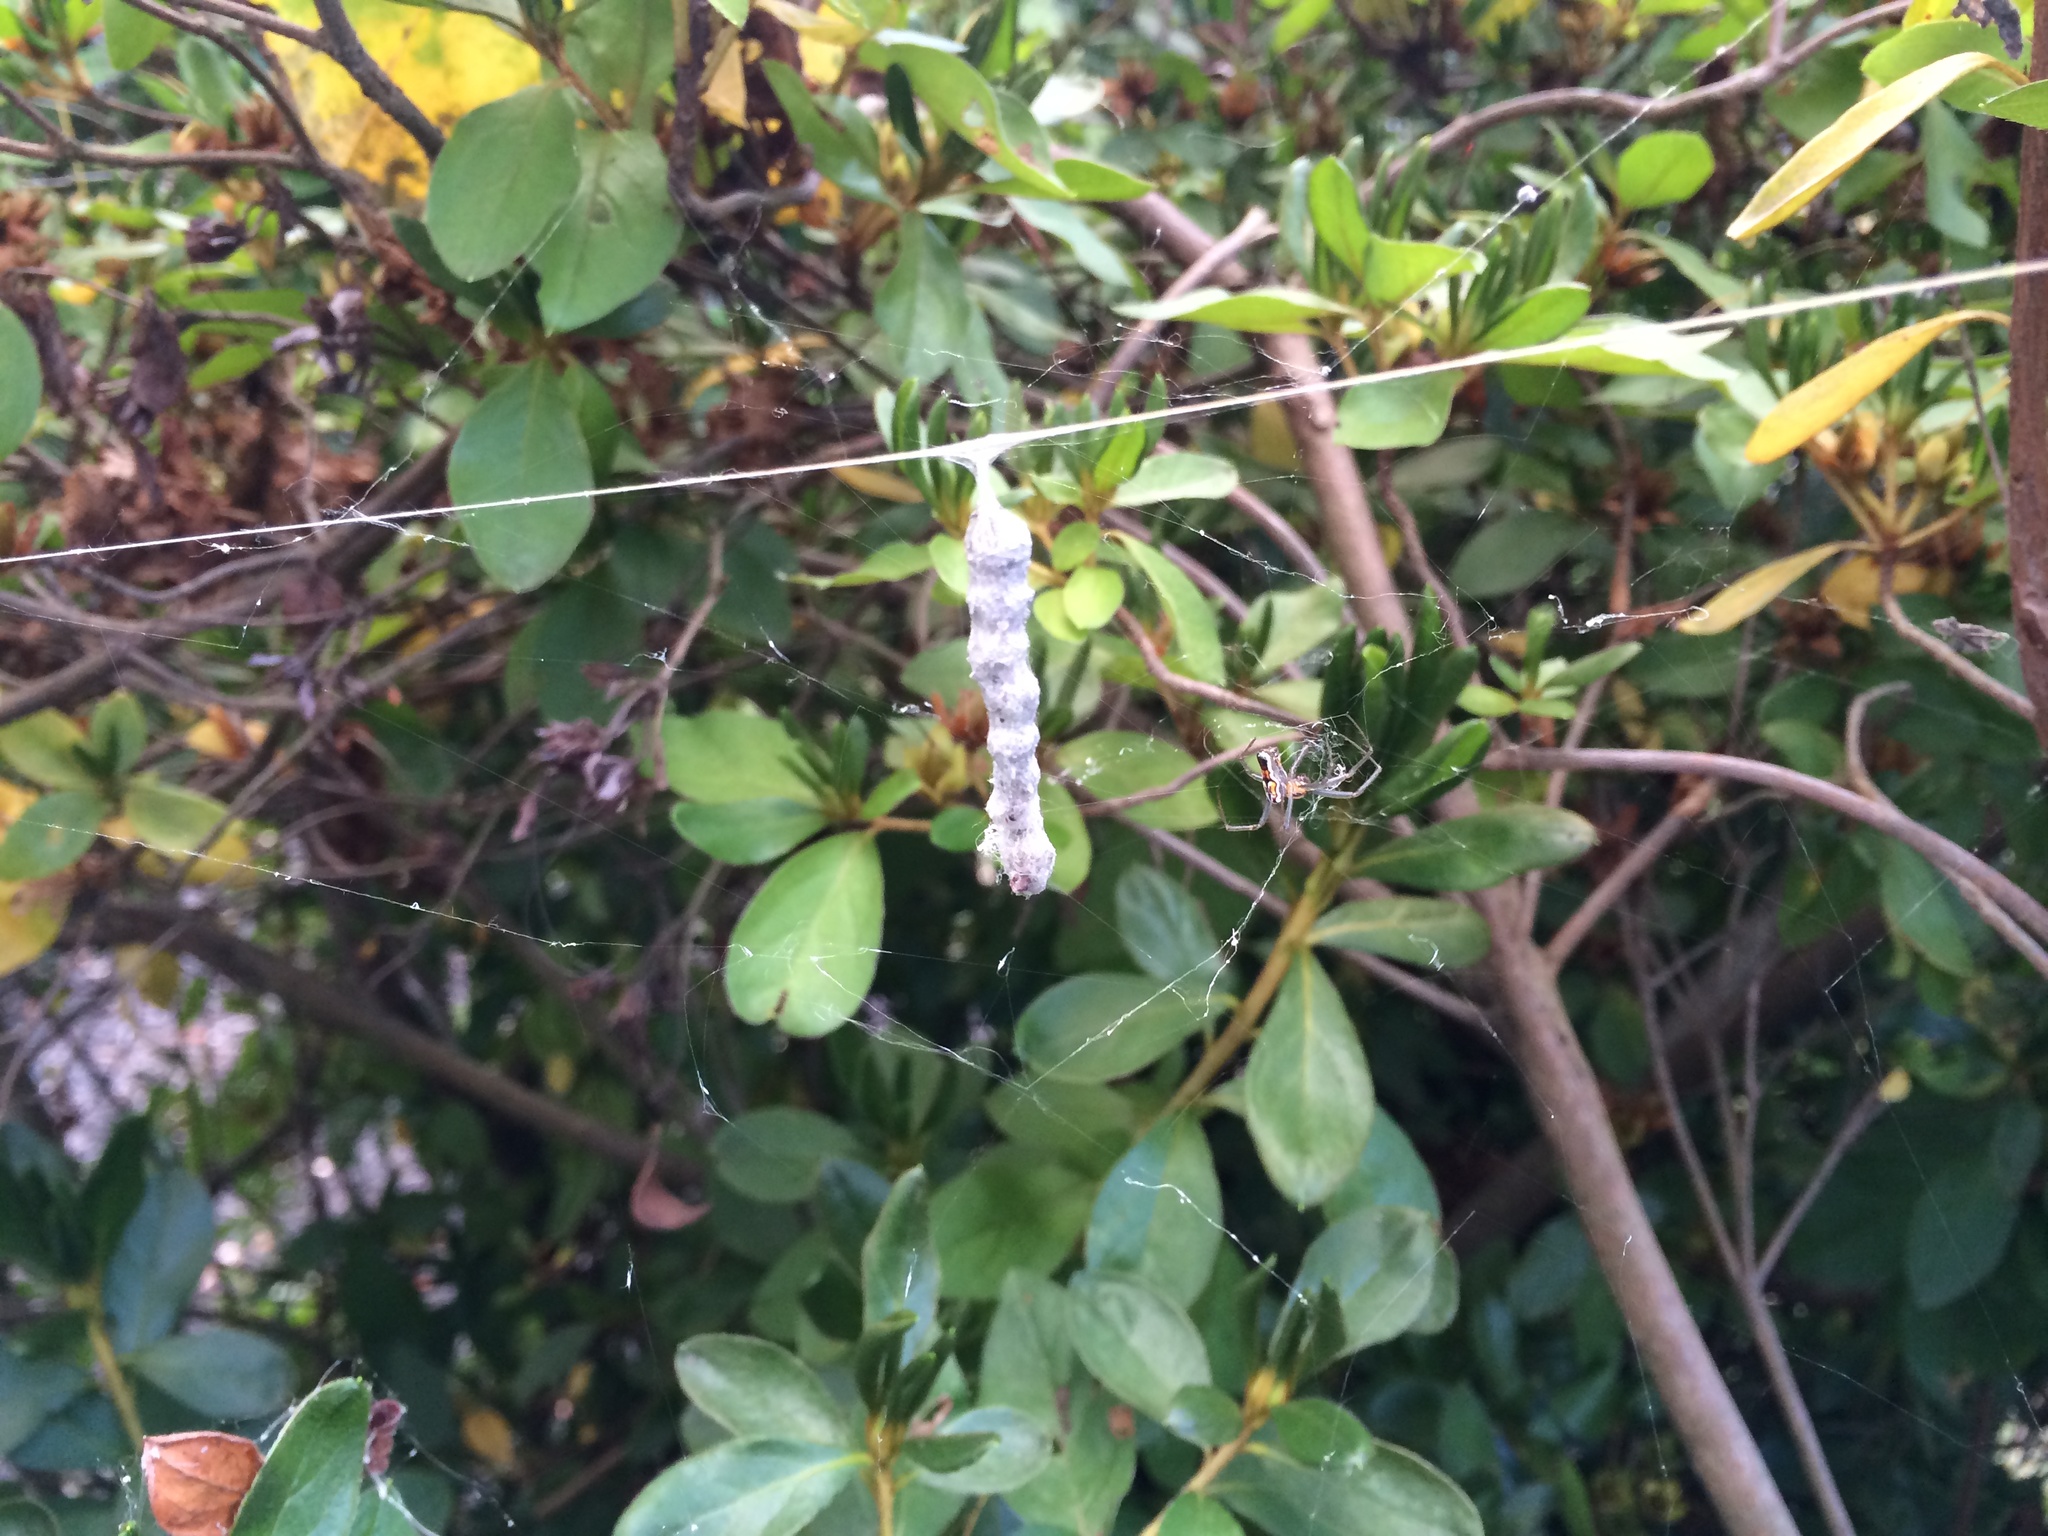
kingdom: Animalia
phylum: Arthropoda
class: Arachnida
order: Araneae
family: Araneidae
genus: Mecynogea
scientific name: Mecynogea lemniscata
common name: Orb weavers
